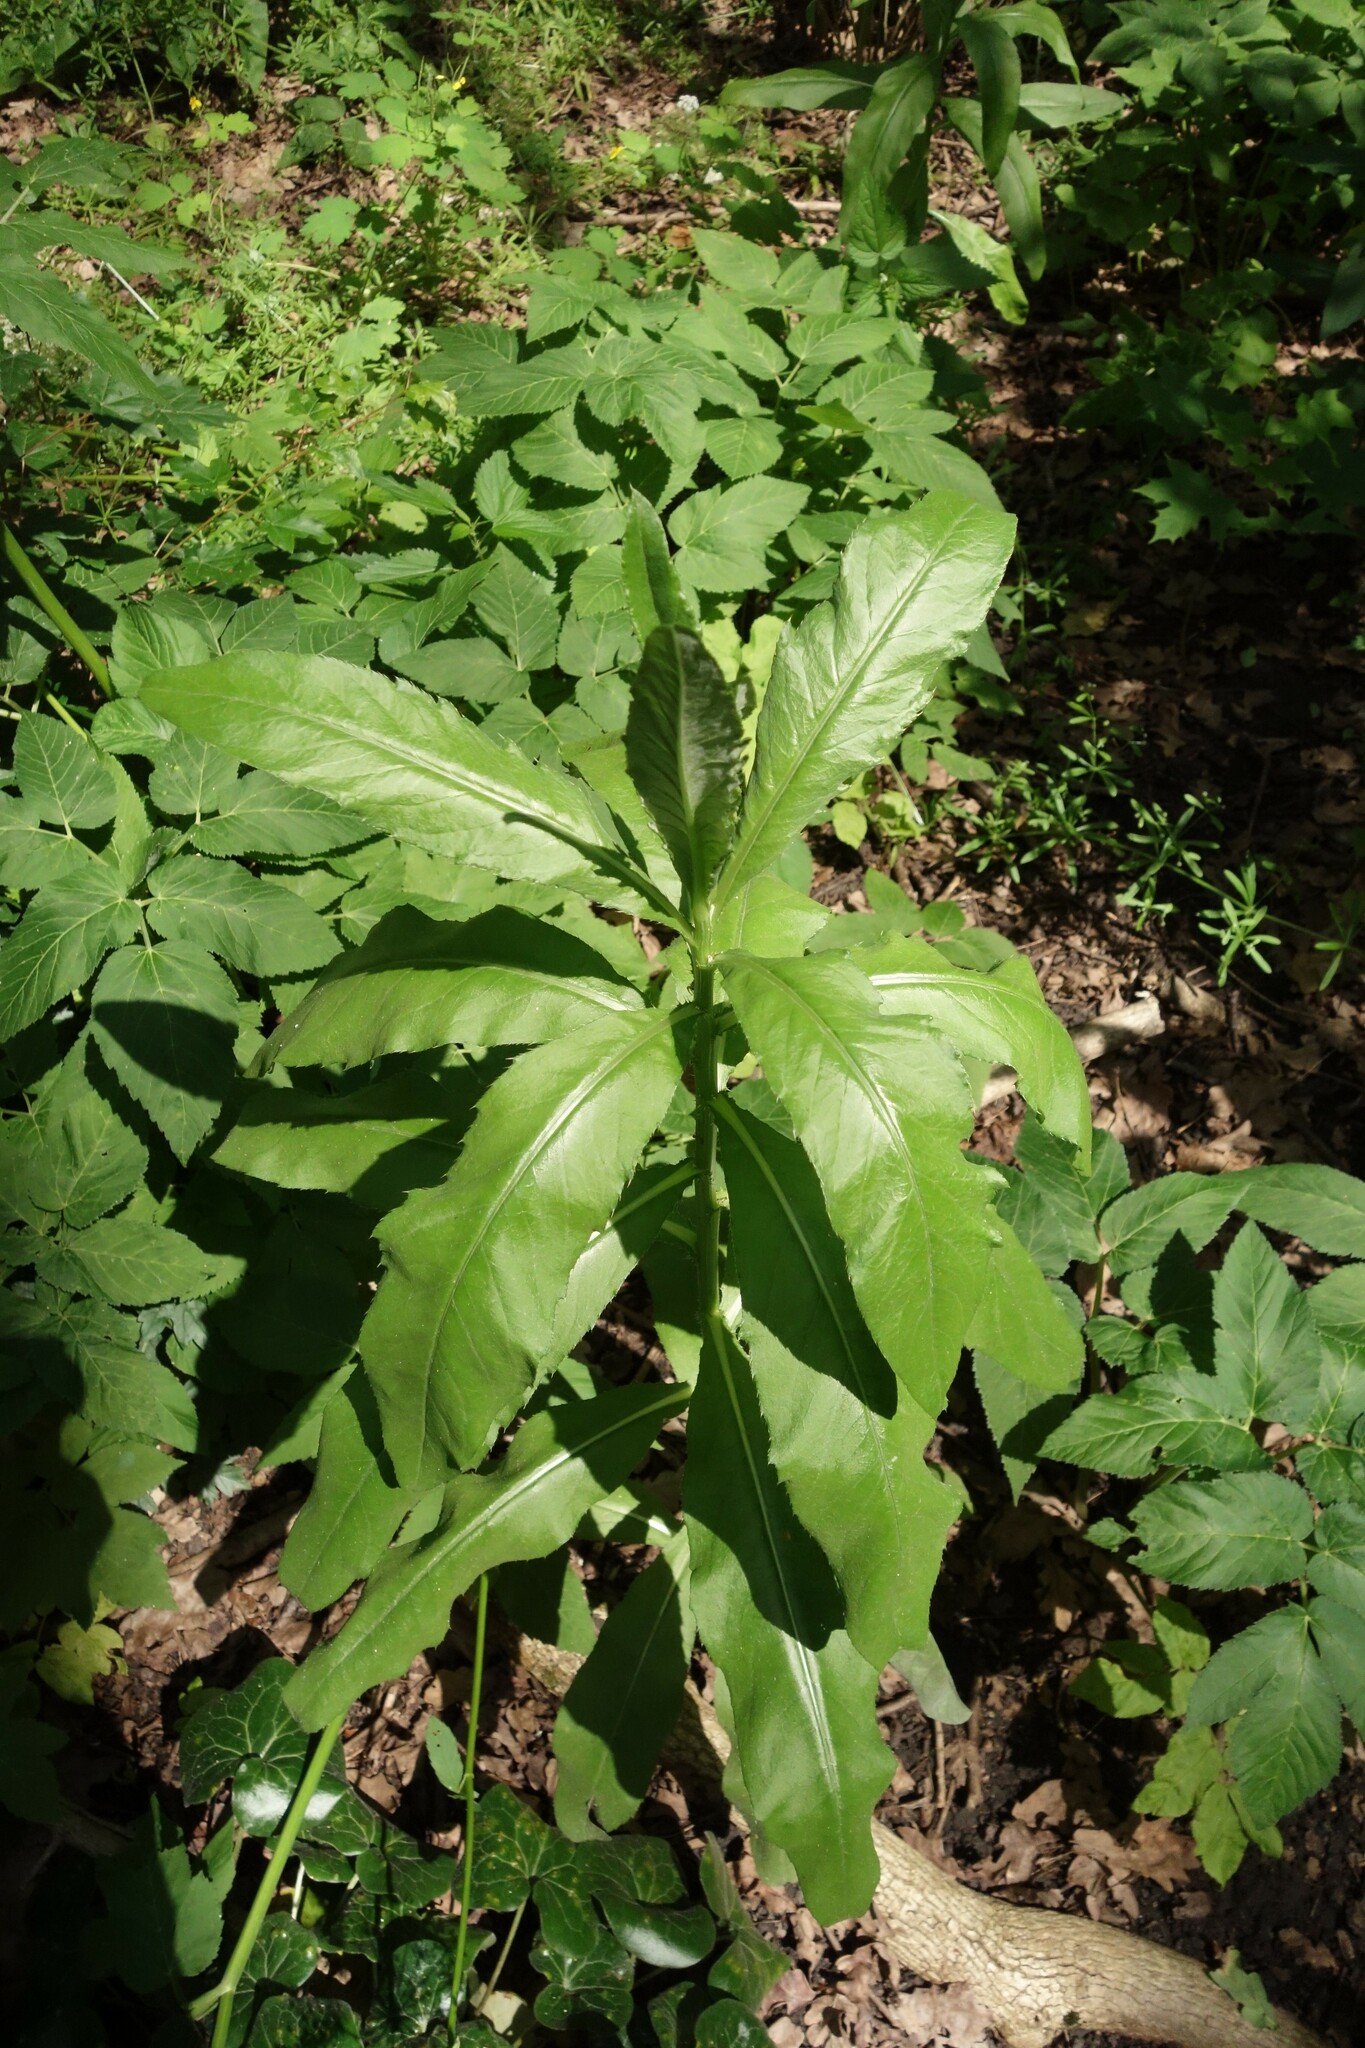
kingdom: Plantae
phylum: Tracheophyta
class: Magnoliopsida
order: Asterales
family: Asteraceae
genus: Cirsium
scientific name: Cirsium arvense
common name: Creeping thistle
